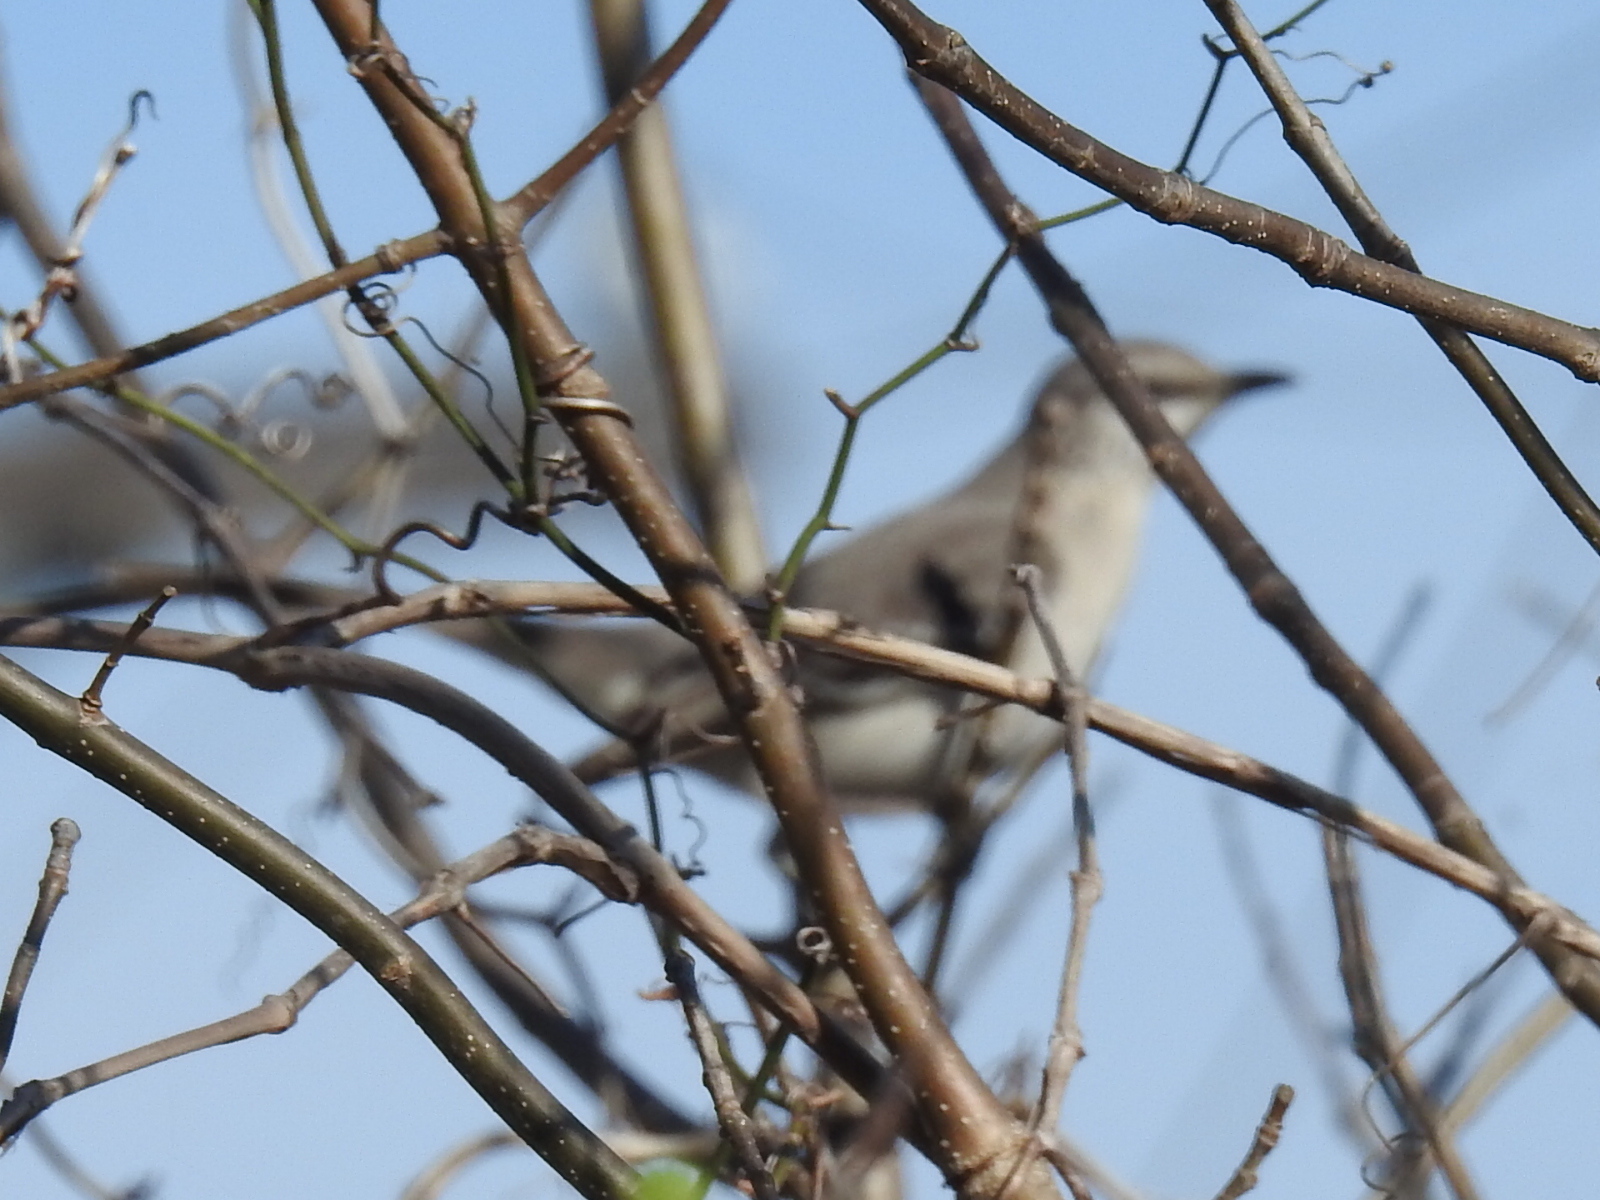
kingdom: Animalia
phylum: Chordata
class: Aves
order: Passeriformes
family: Mimidae
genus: Mimus
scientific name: Mimus polyglottos
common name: Northern mockingbird
